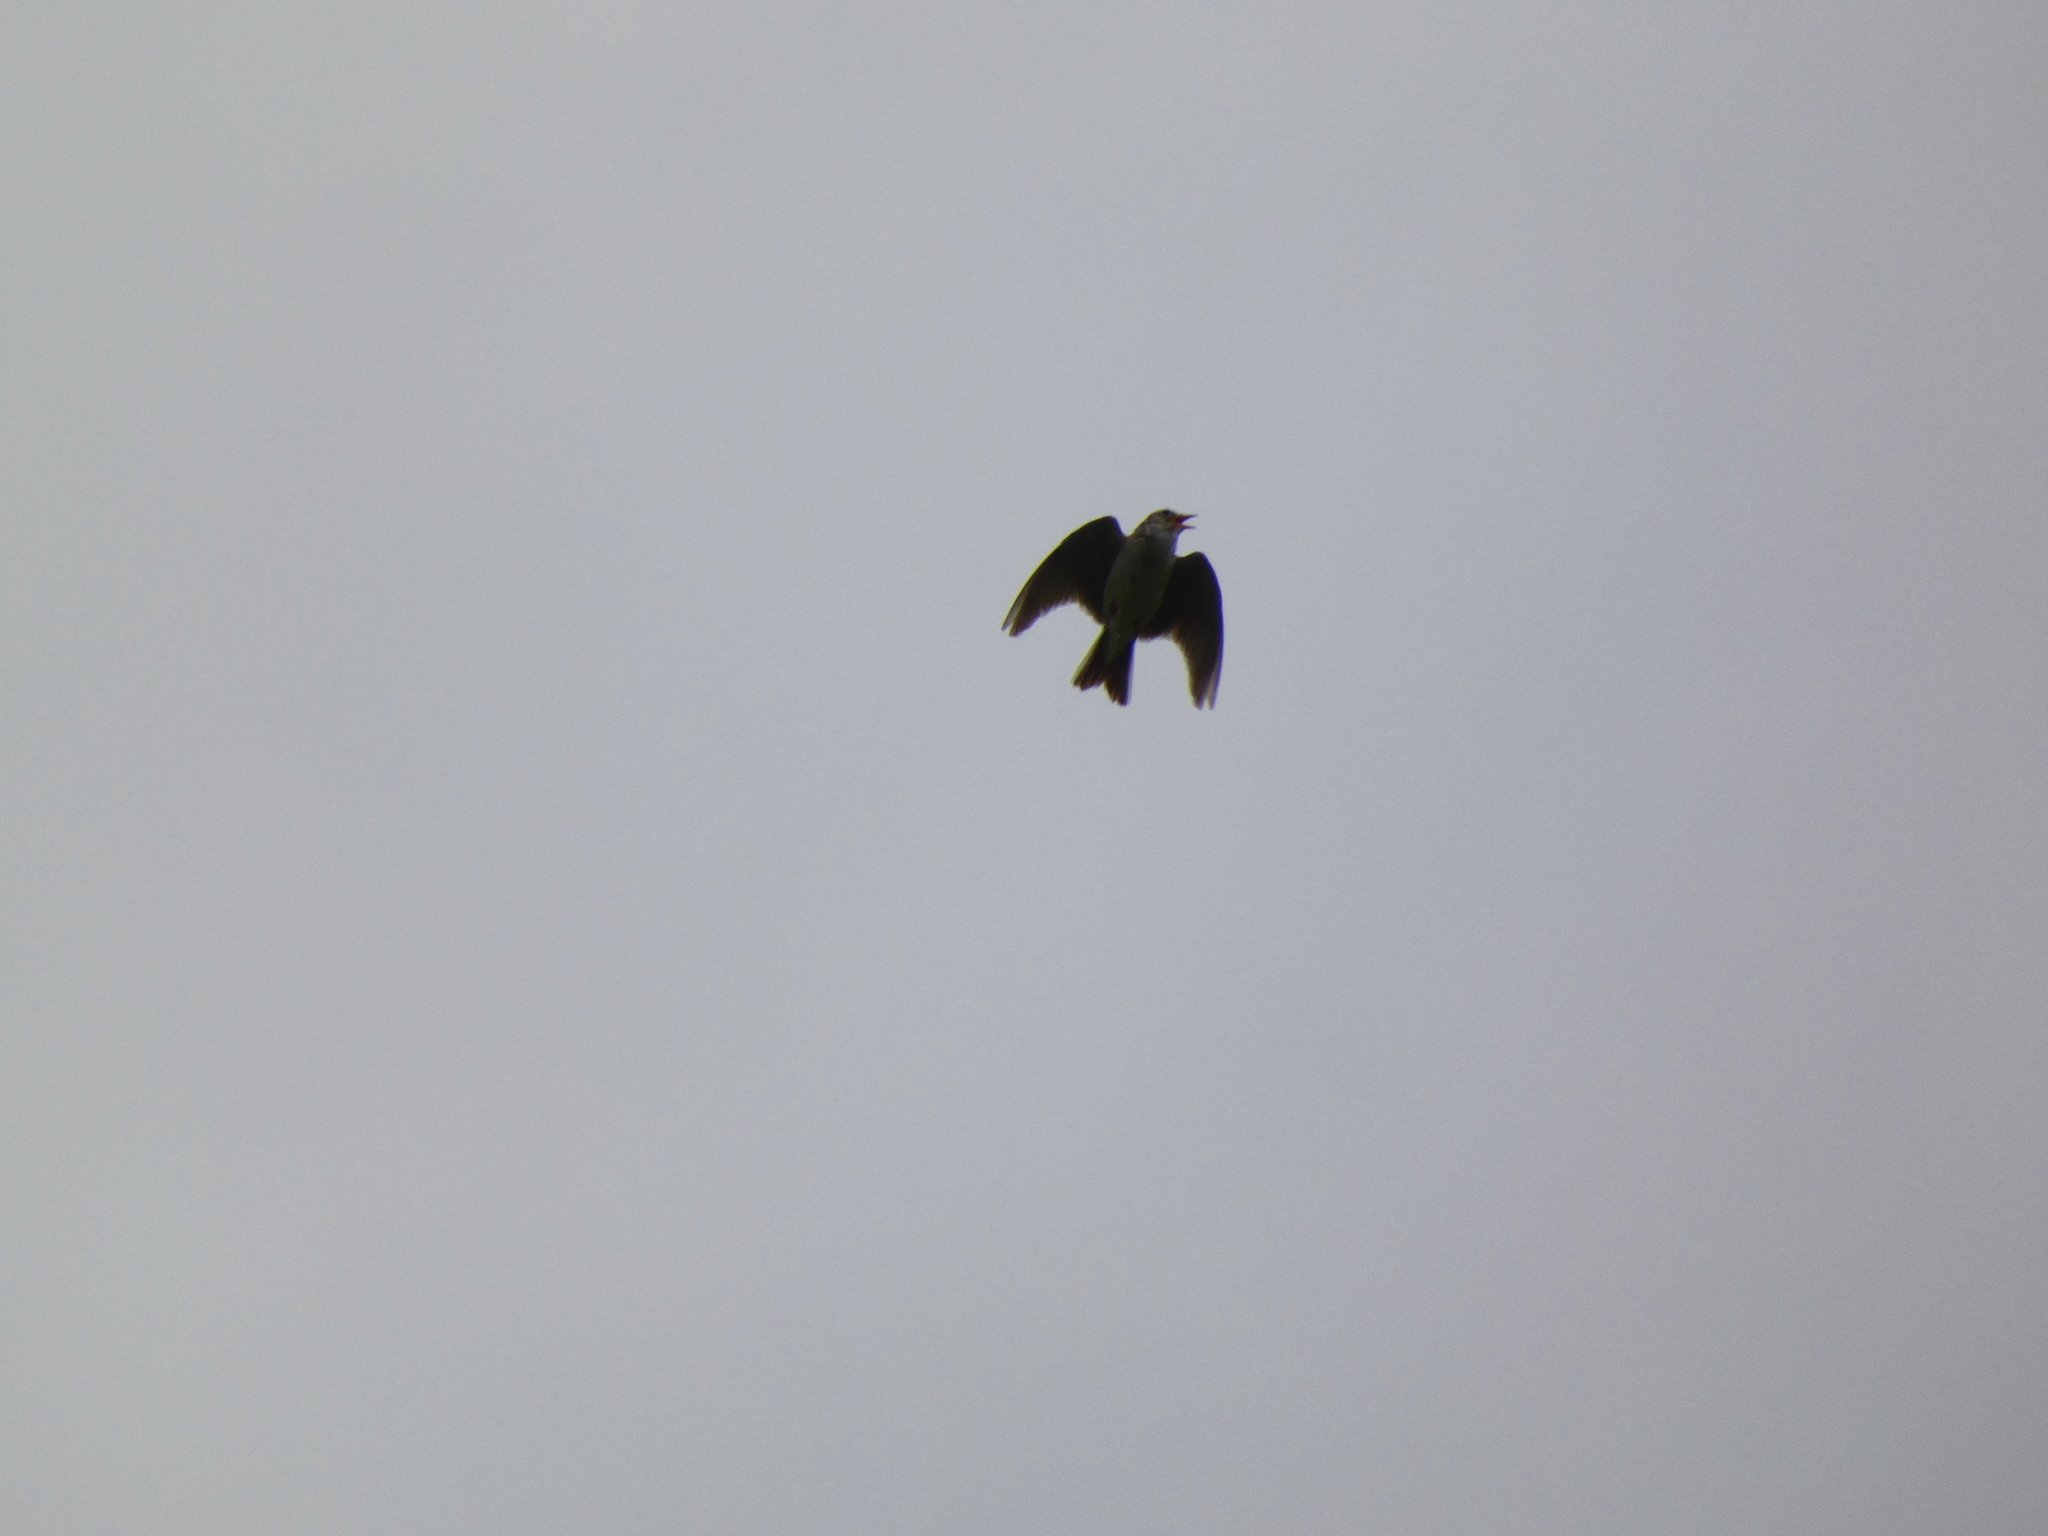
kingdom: Animalia
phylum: Chordata
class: Aves
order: Passeriformes
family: Alaudidae
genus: Alauda
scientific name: Alauda arvensis
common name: Eurasian skylark
